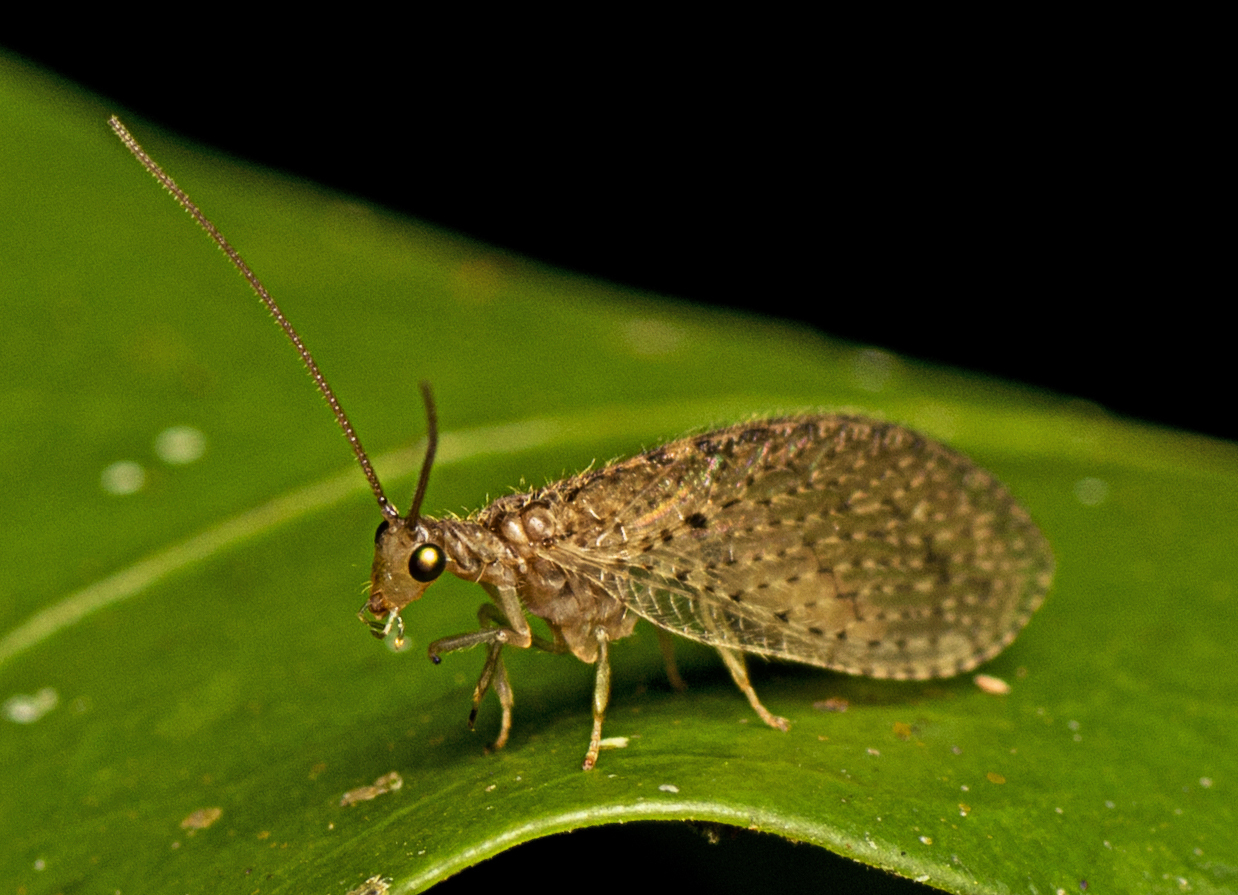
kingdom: Animalia
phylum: Arthropoda
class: Insecta
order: Neuroptera
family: Hemerobiidae
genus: Micromus
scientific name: Micromus tasmaniae
